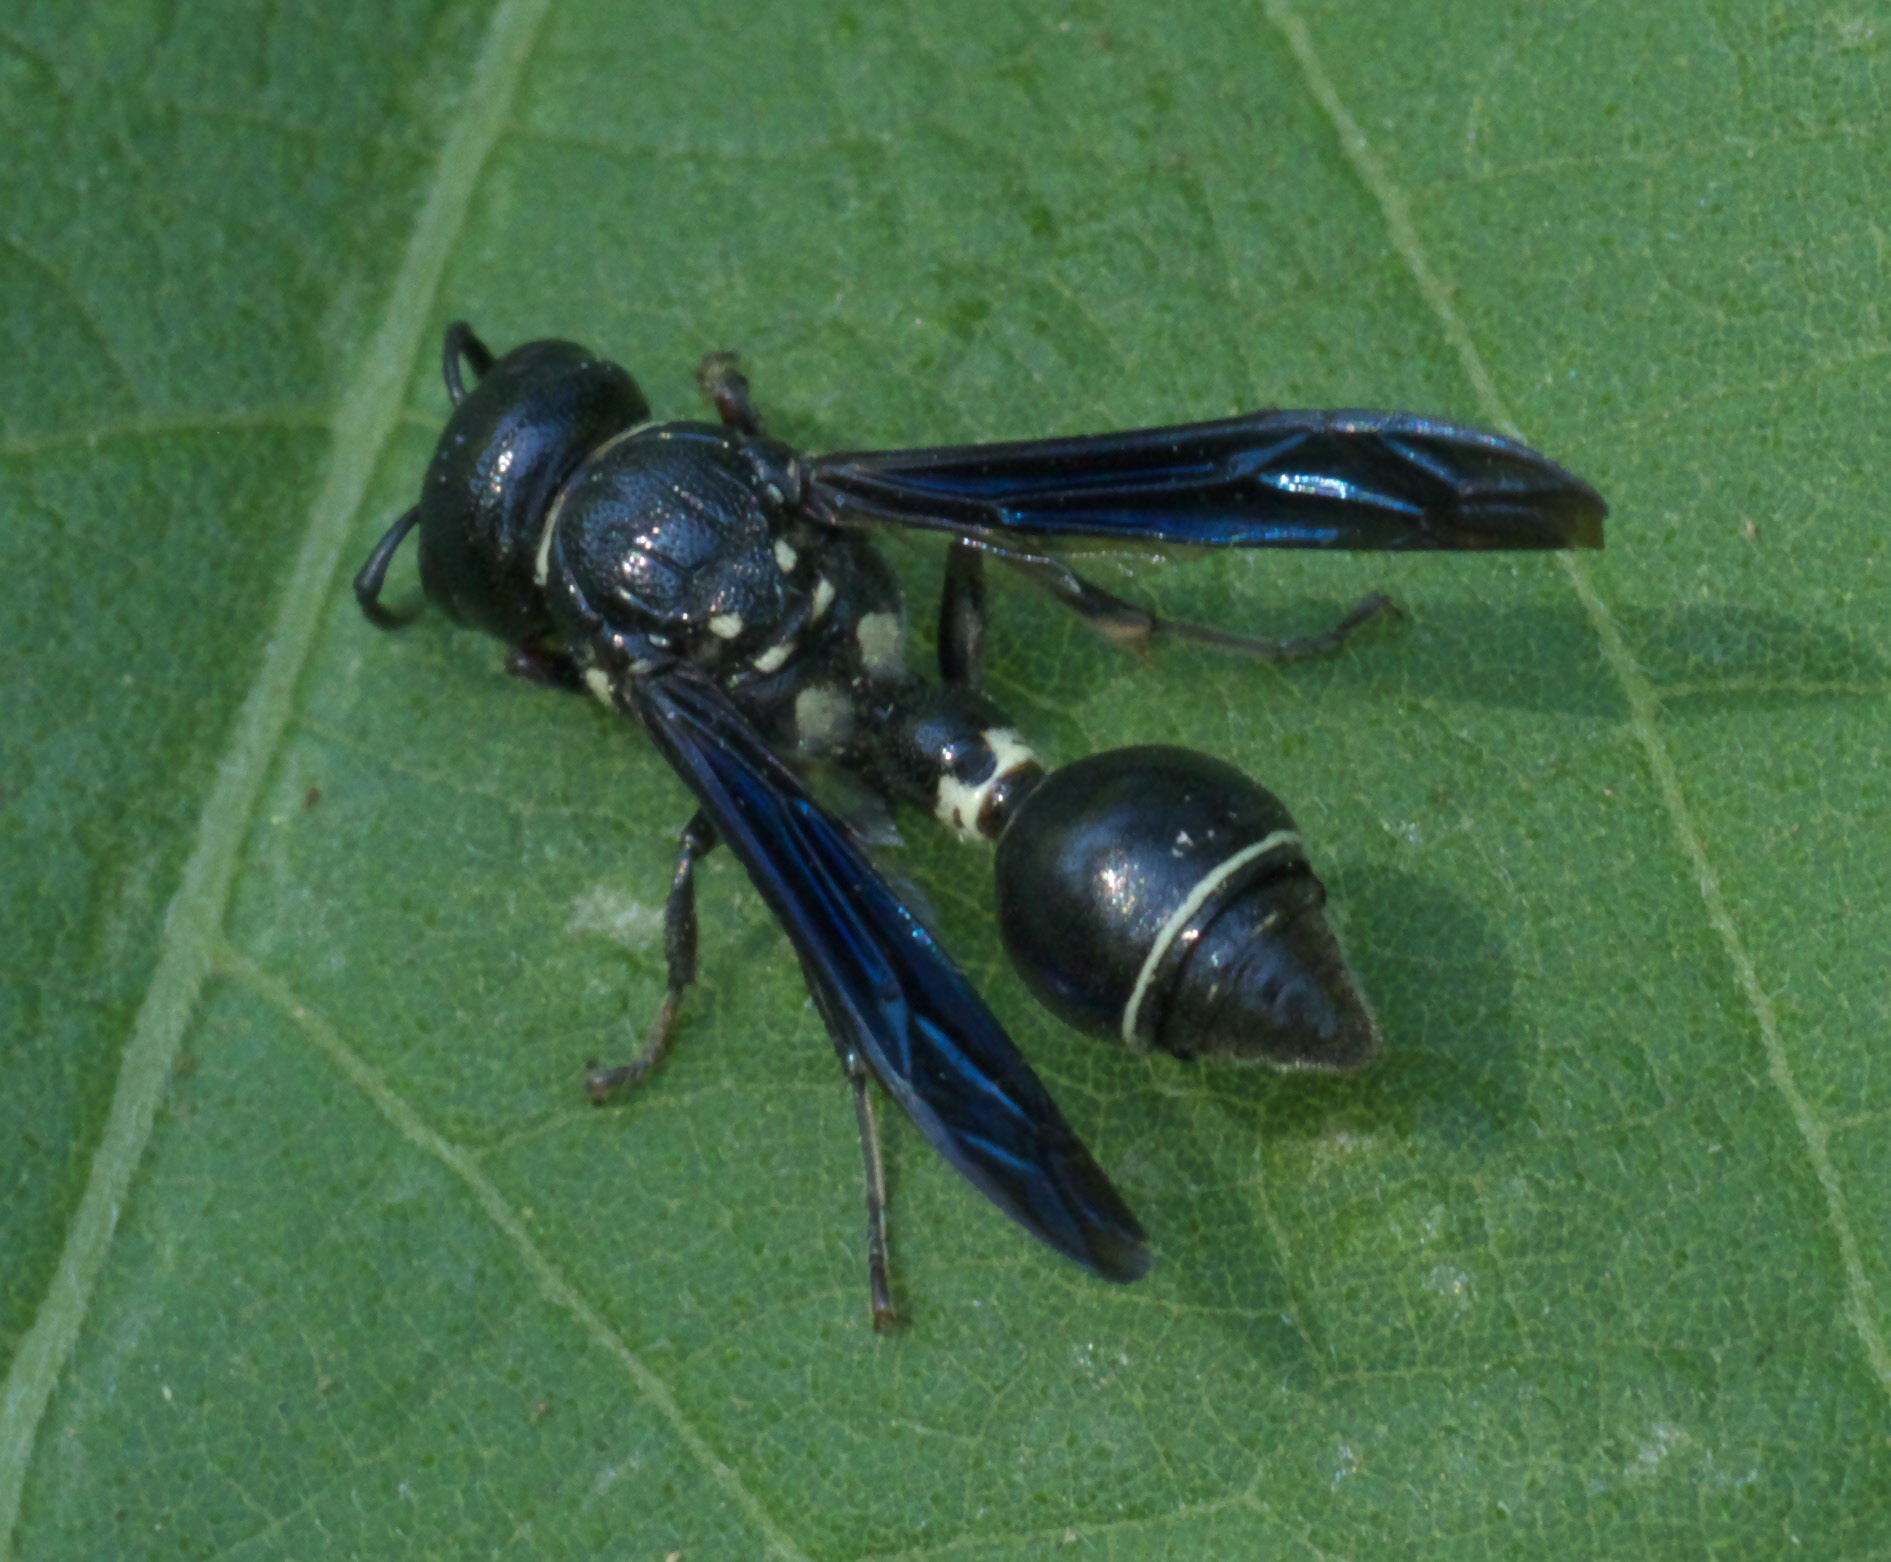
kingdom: Animalia
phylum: Arthropoda
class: Insecta
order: Hymenoptera
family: Eumenidae
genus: Zethus
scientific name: Zethus spinipes
